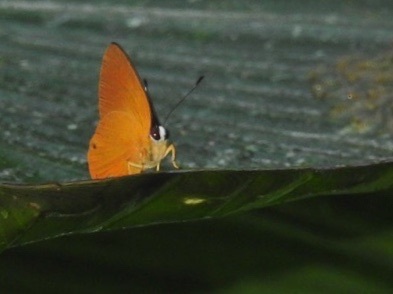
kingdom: Animalia
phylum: Arthropoda
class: Insecta
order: Lepidoptera
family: Lycaenidae
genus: Euselasia
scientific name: Euselasia candaria
